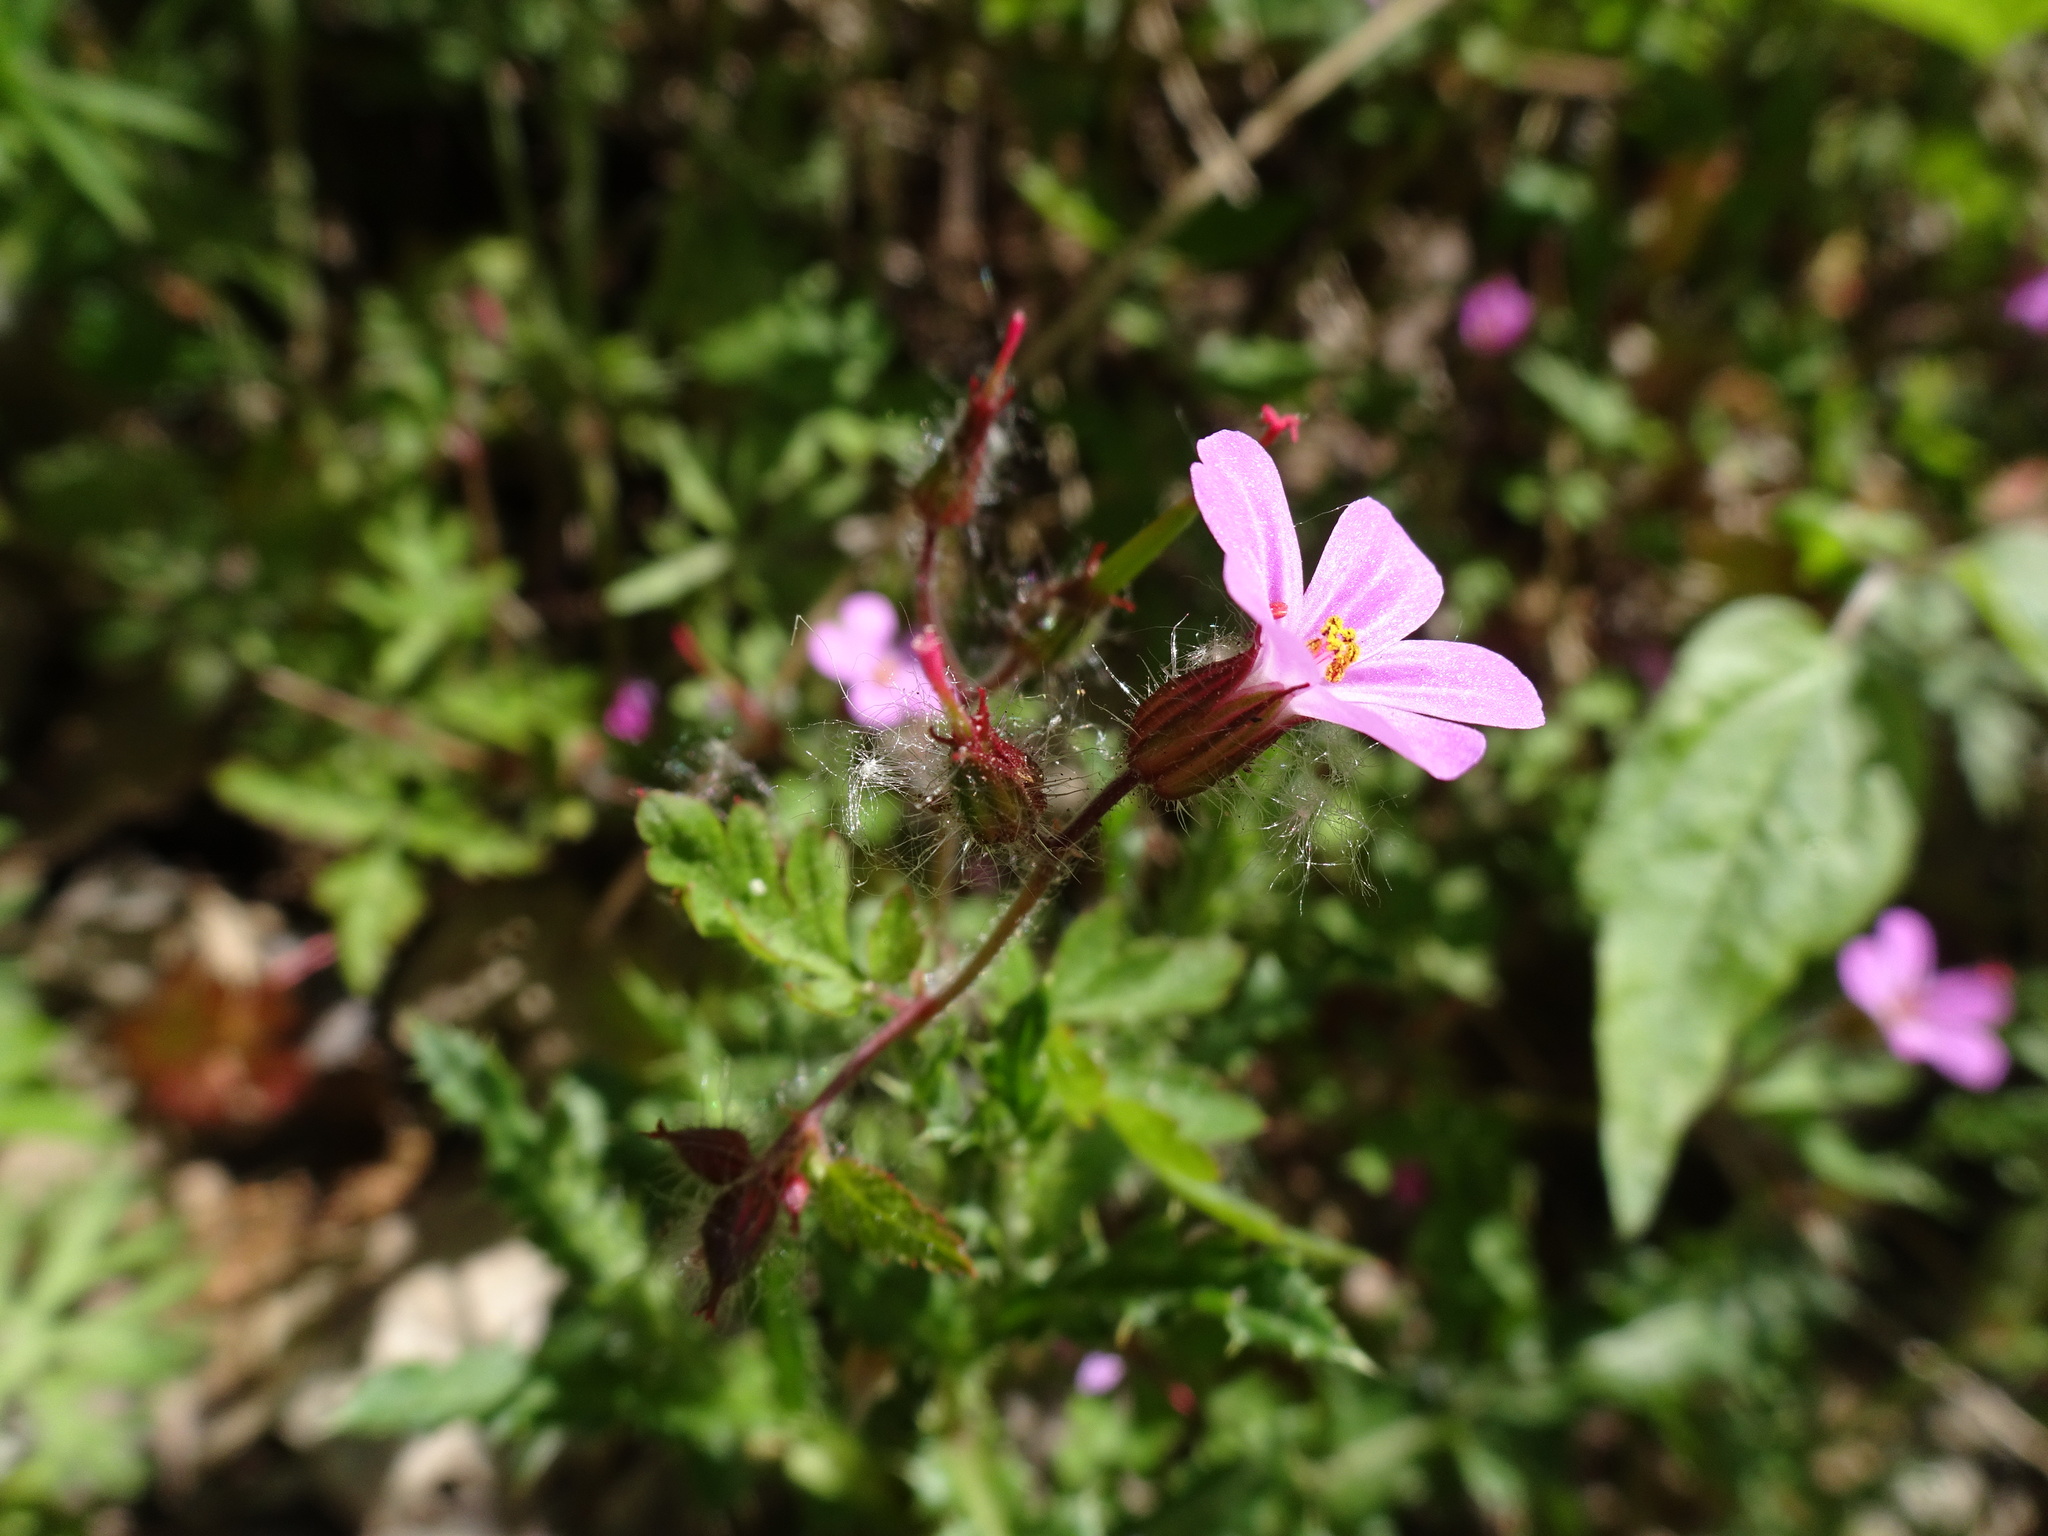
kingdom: Plantae
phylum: Tracheophyta
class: Magnoliopsida
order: Geraniales
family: Geraniaceae
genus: Geranium
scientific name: Geranium robertianum
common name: Herb-robert
